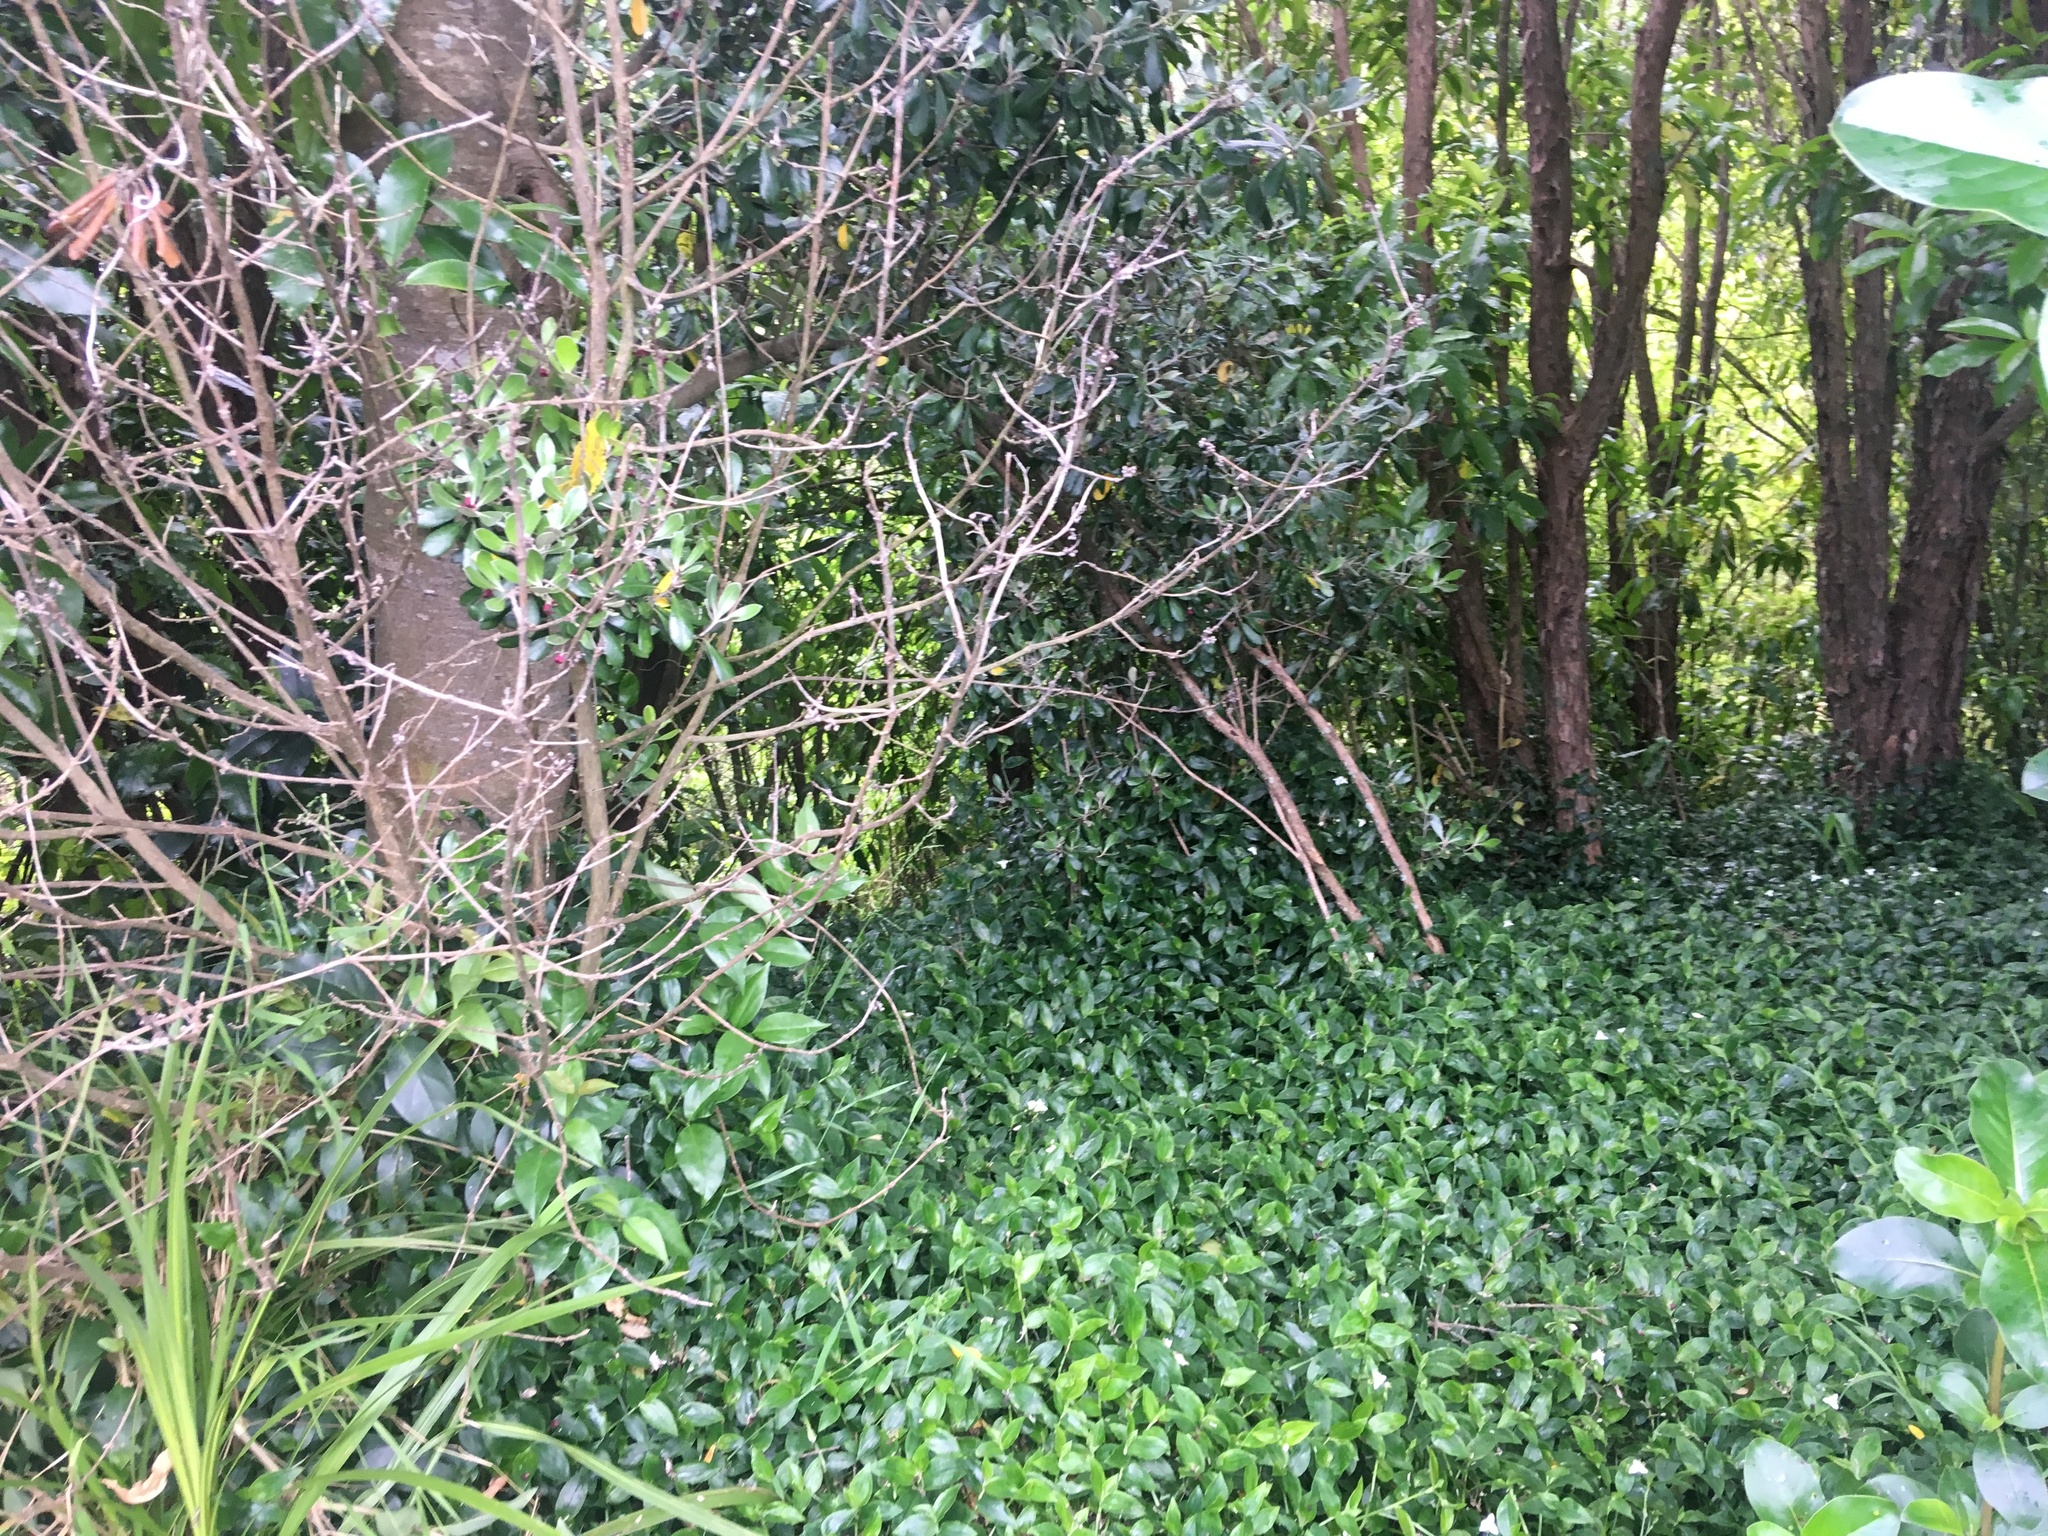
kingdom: Plantae
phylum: Tracheophyta
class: Liliopsida
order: Commelinales
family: Commelinaceae
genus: Tradescantia
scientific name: Tradescantia fluminensis
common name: Wandering-jew
